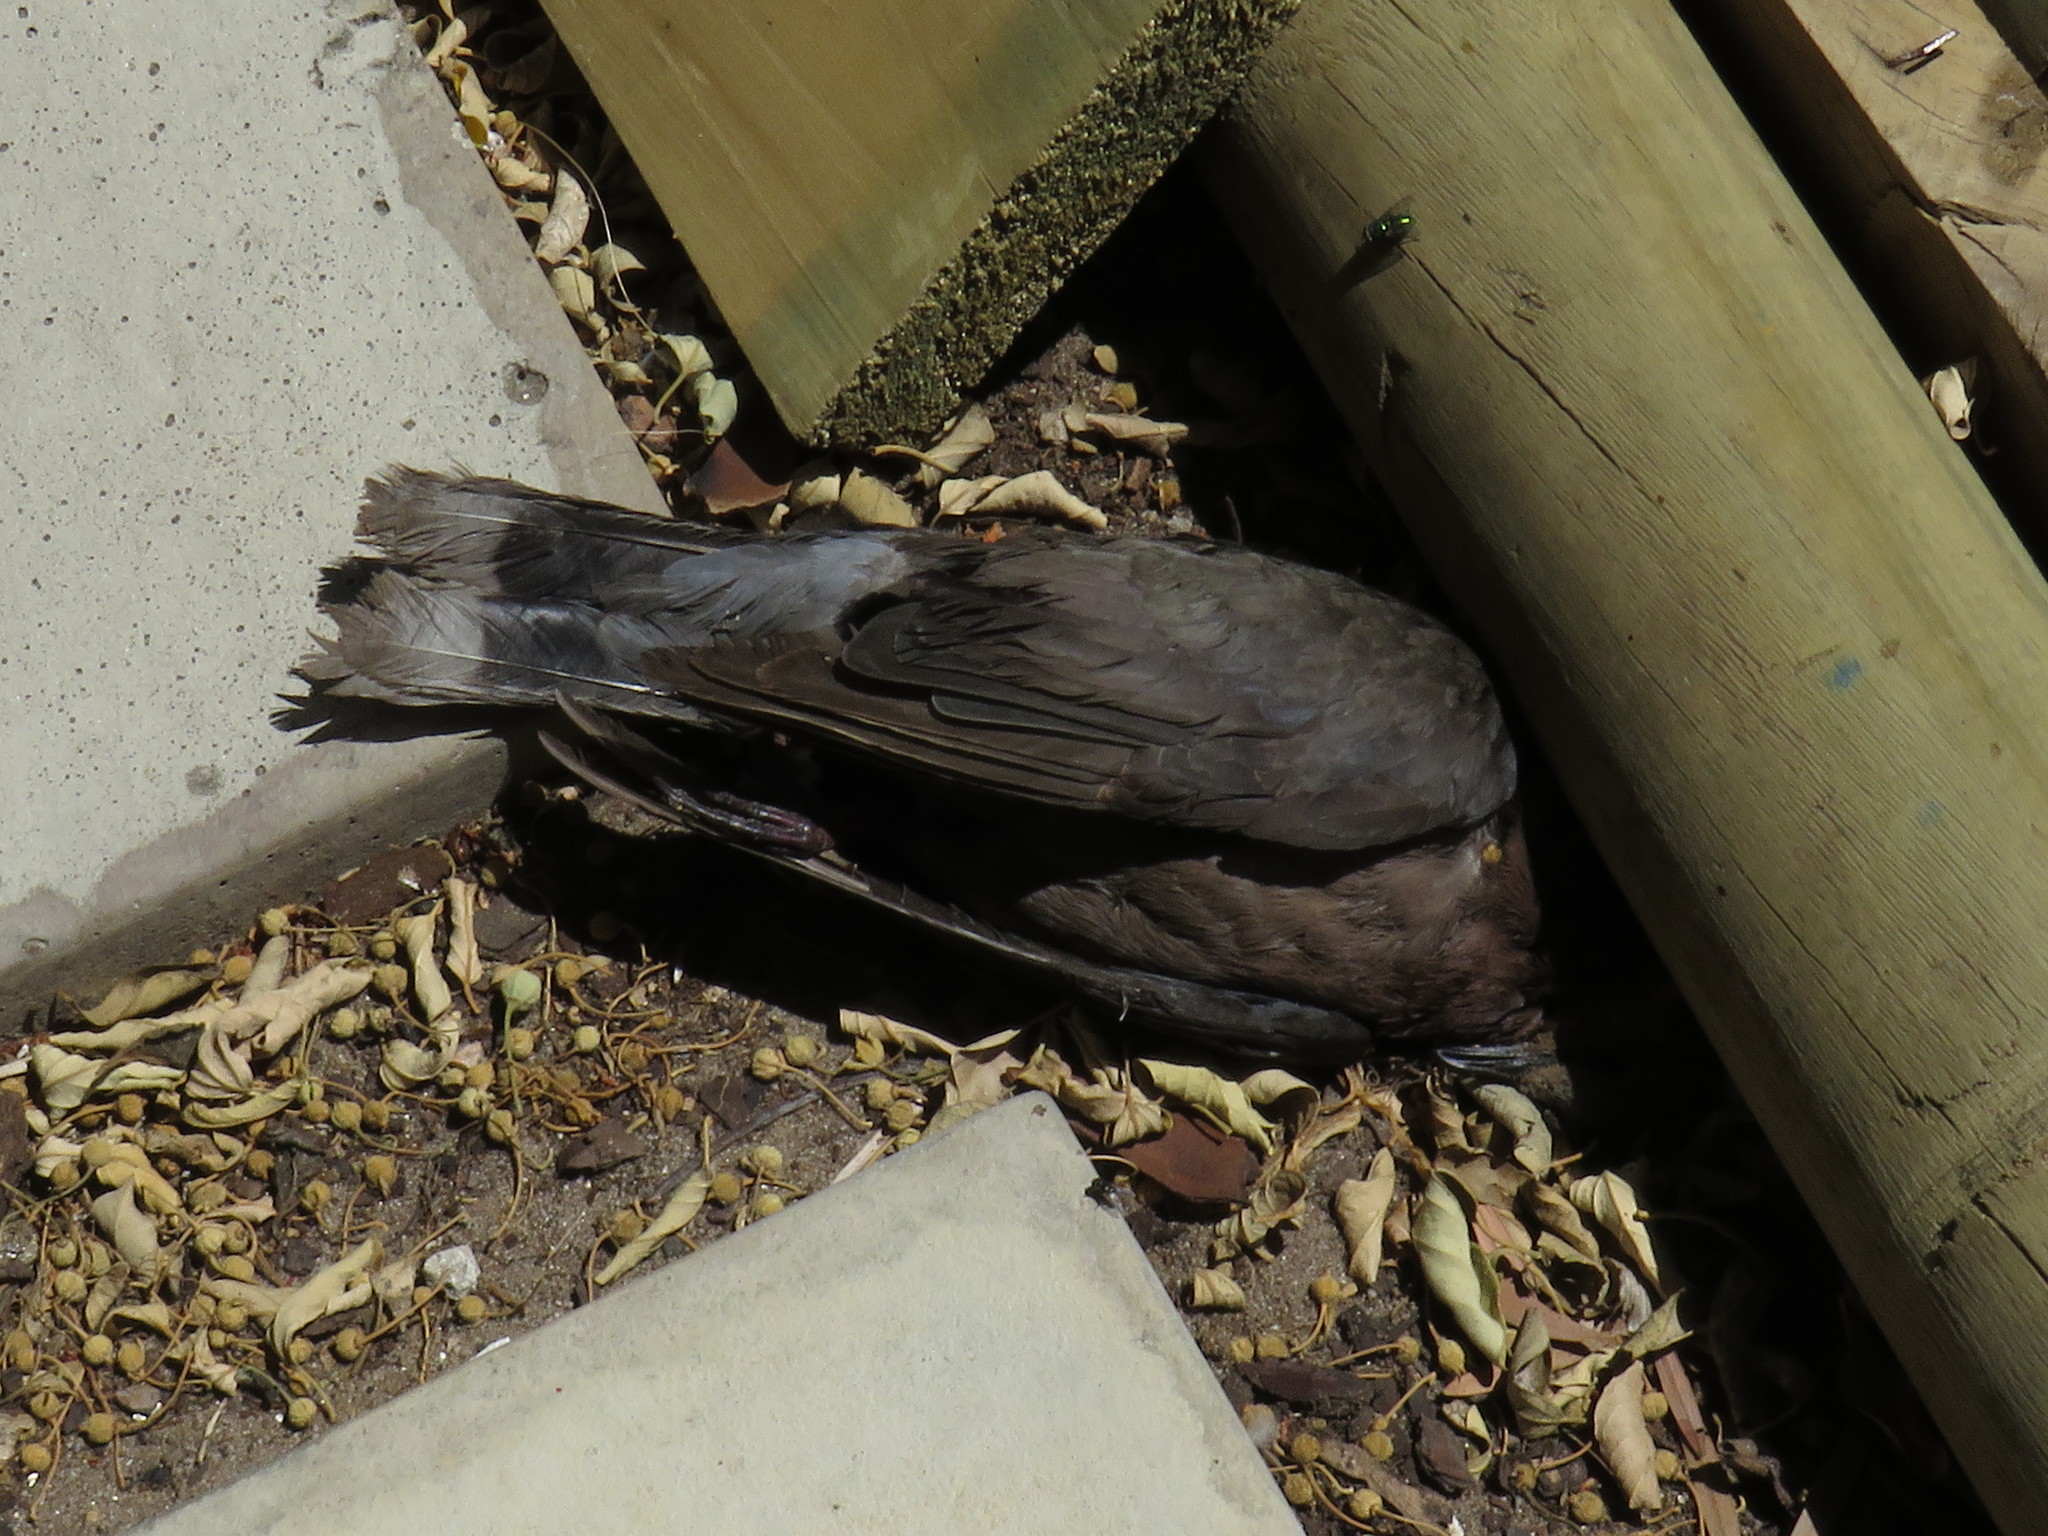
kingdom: Animalia
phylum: Chordata
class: Aves
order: Columbiformes
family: Columbidae
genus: Streptopelia
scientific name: Streptopelia capicola
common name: Ring-necked dove
